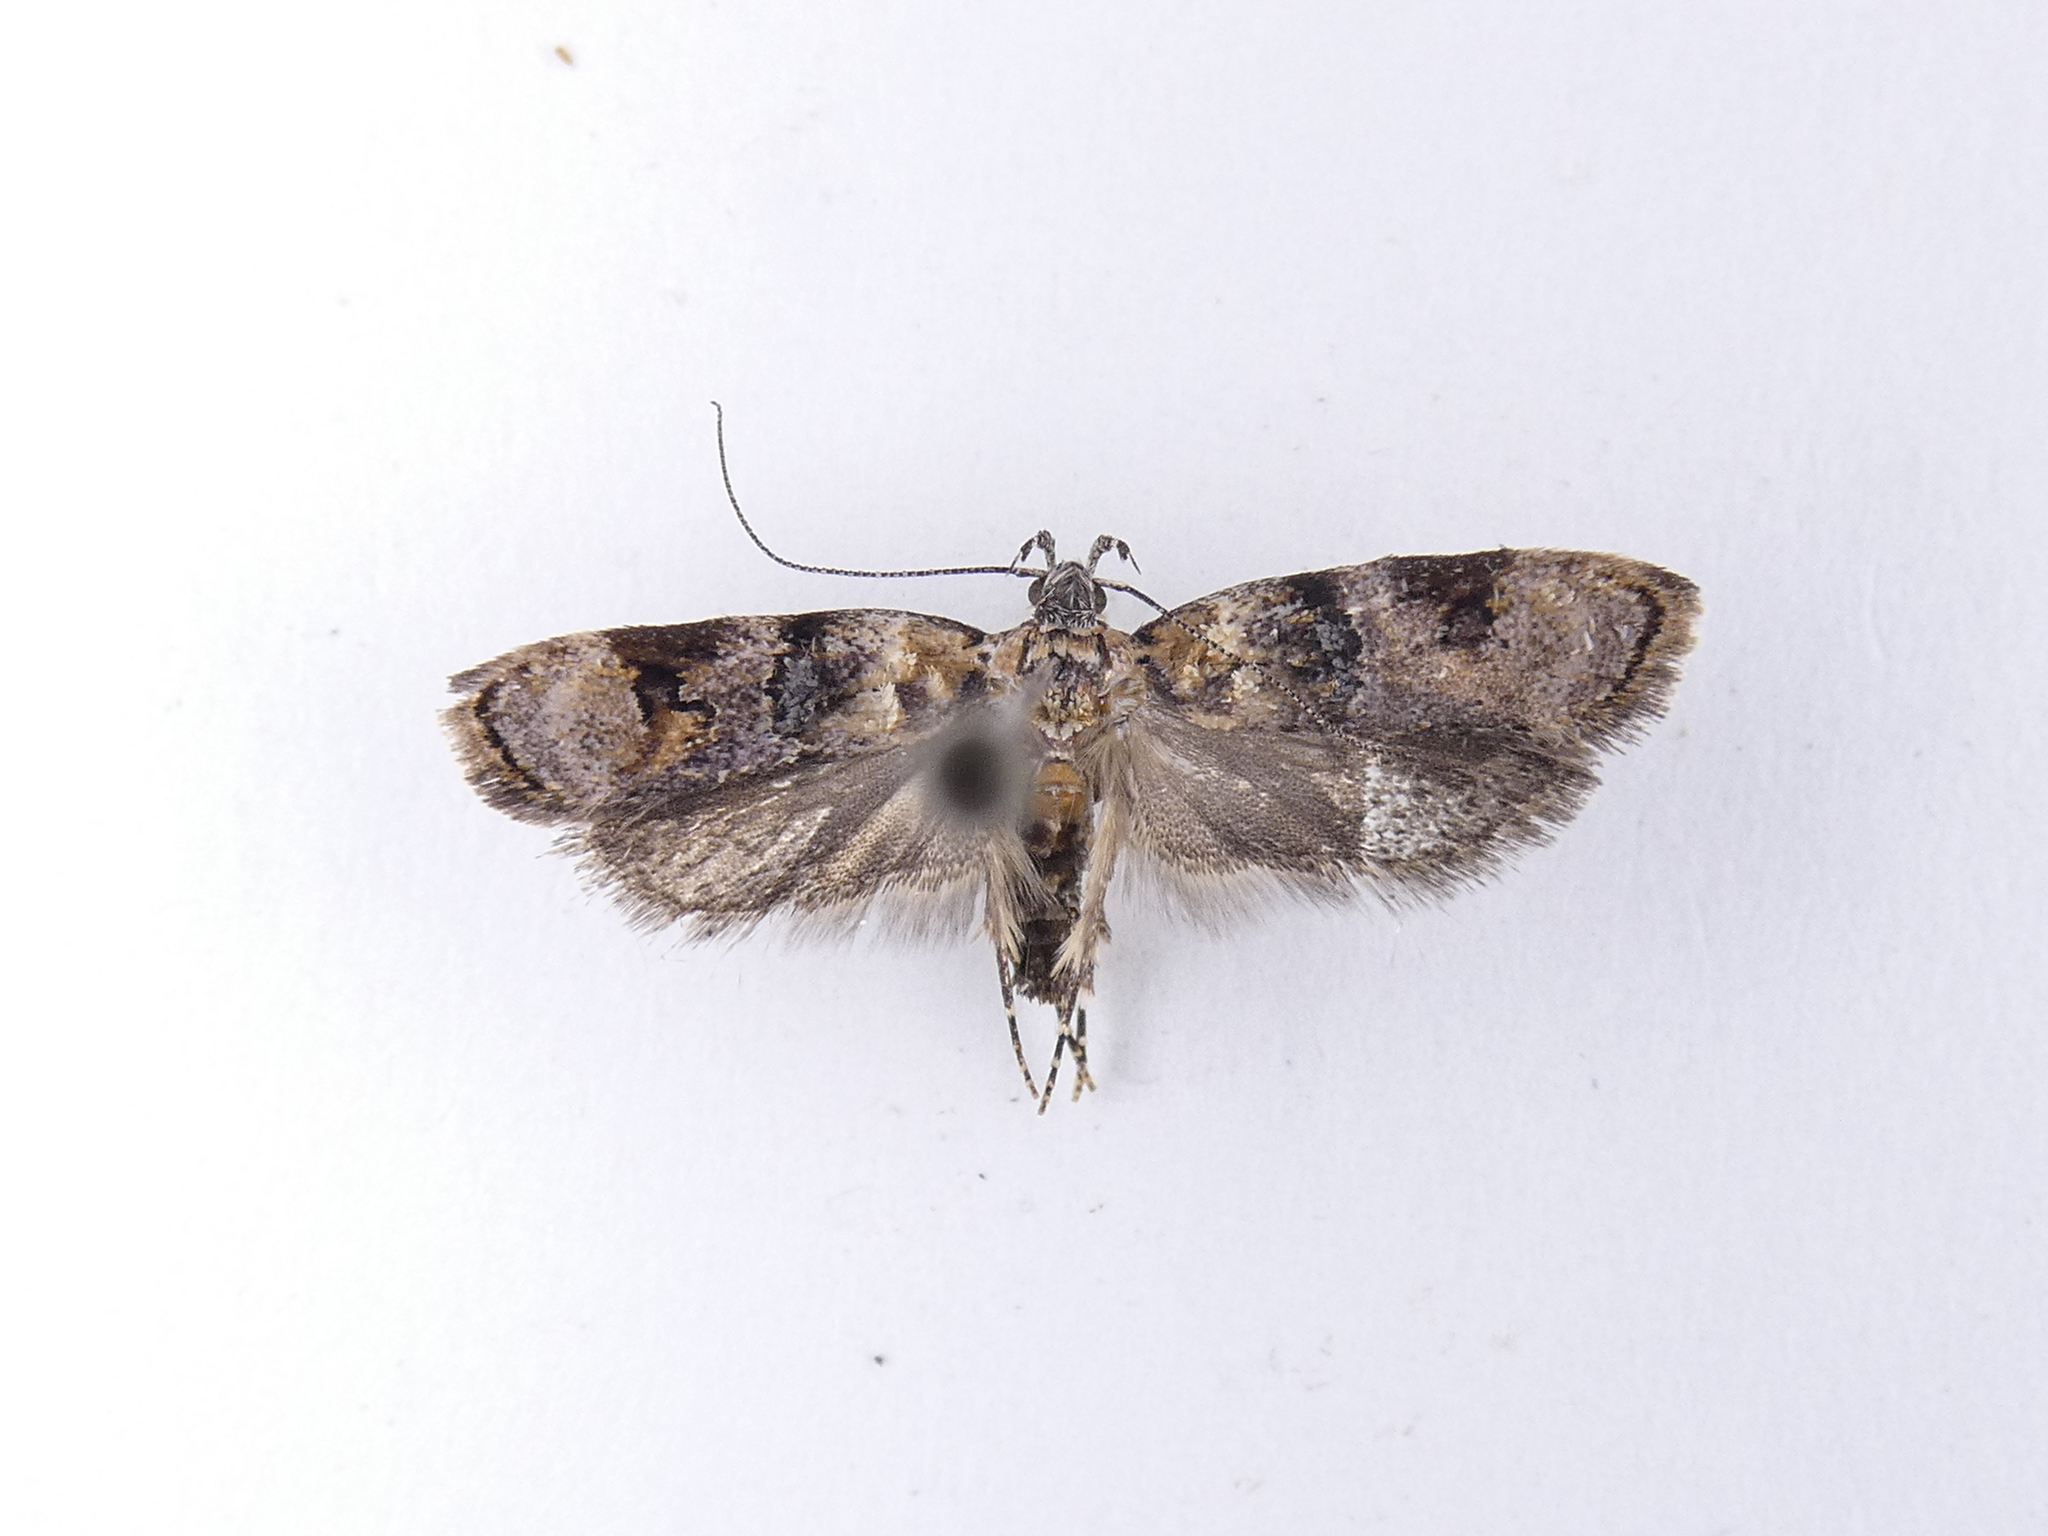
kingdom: Animalia
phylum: Arthropoda
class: Insecta
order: Lepidoptera
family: Oecophoridae
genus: Izatha
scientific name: Izatha metadelta
